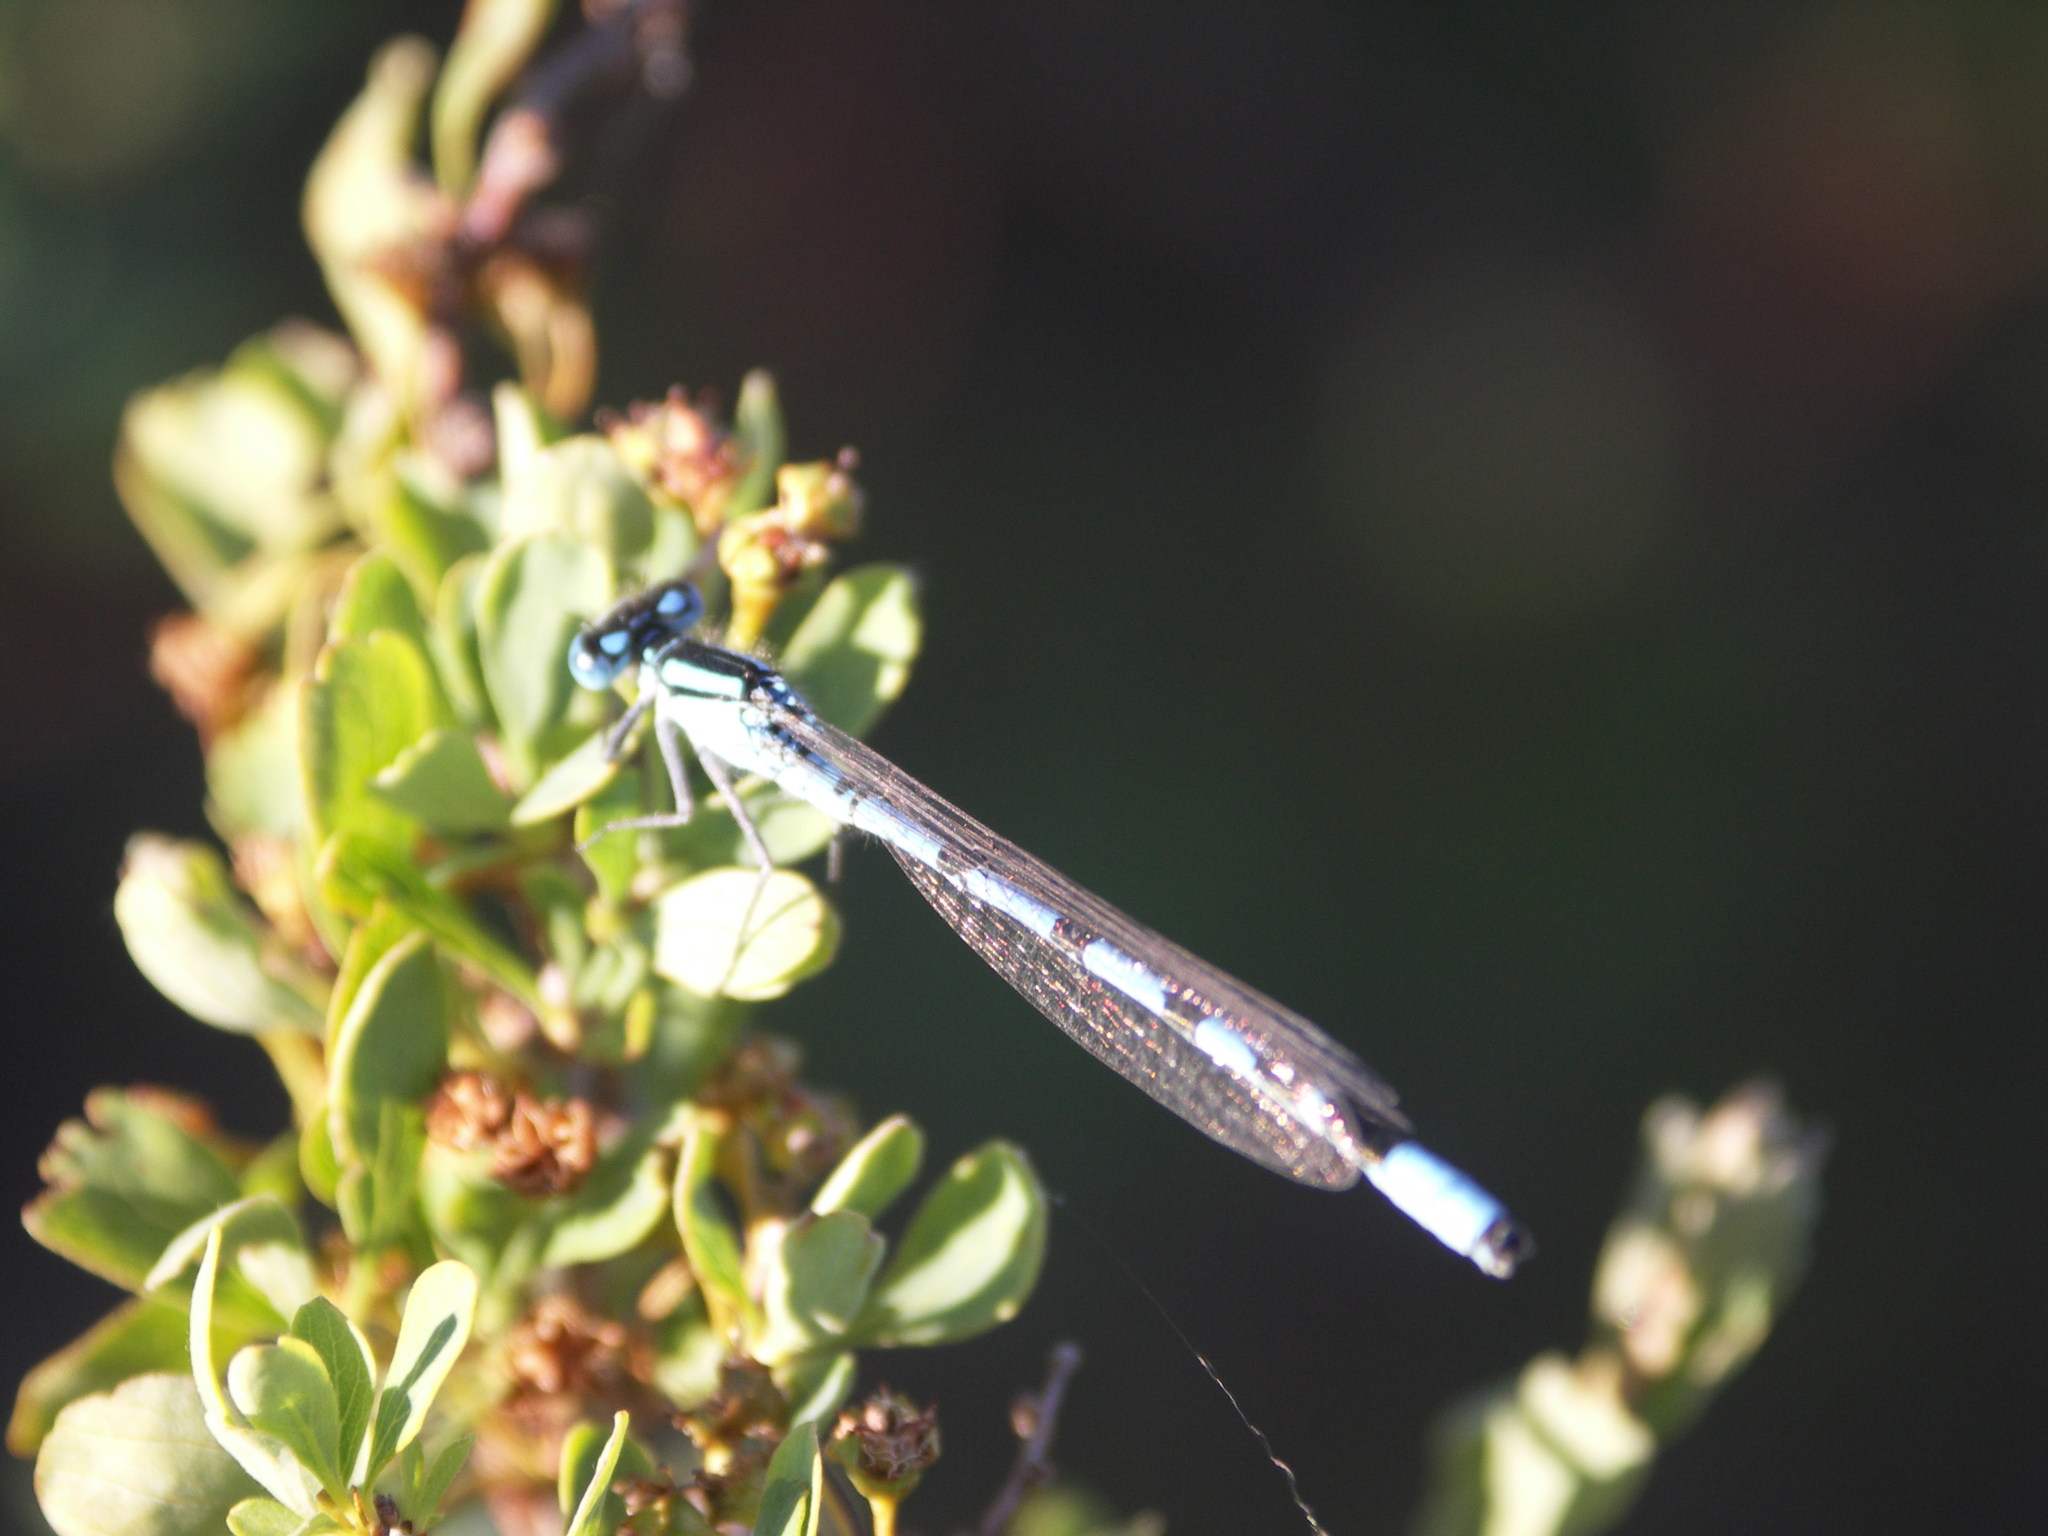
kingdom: Animalia
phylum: Arthropoda
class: Insecta
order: Odonata
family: Coenagrionidae
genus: Enallagma
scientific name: Enallagma cyathigerum
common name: Common blue damselfly
